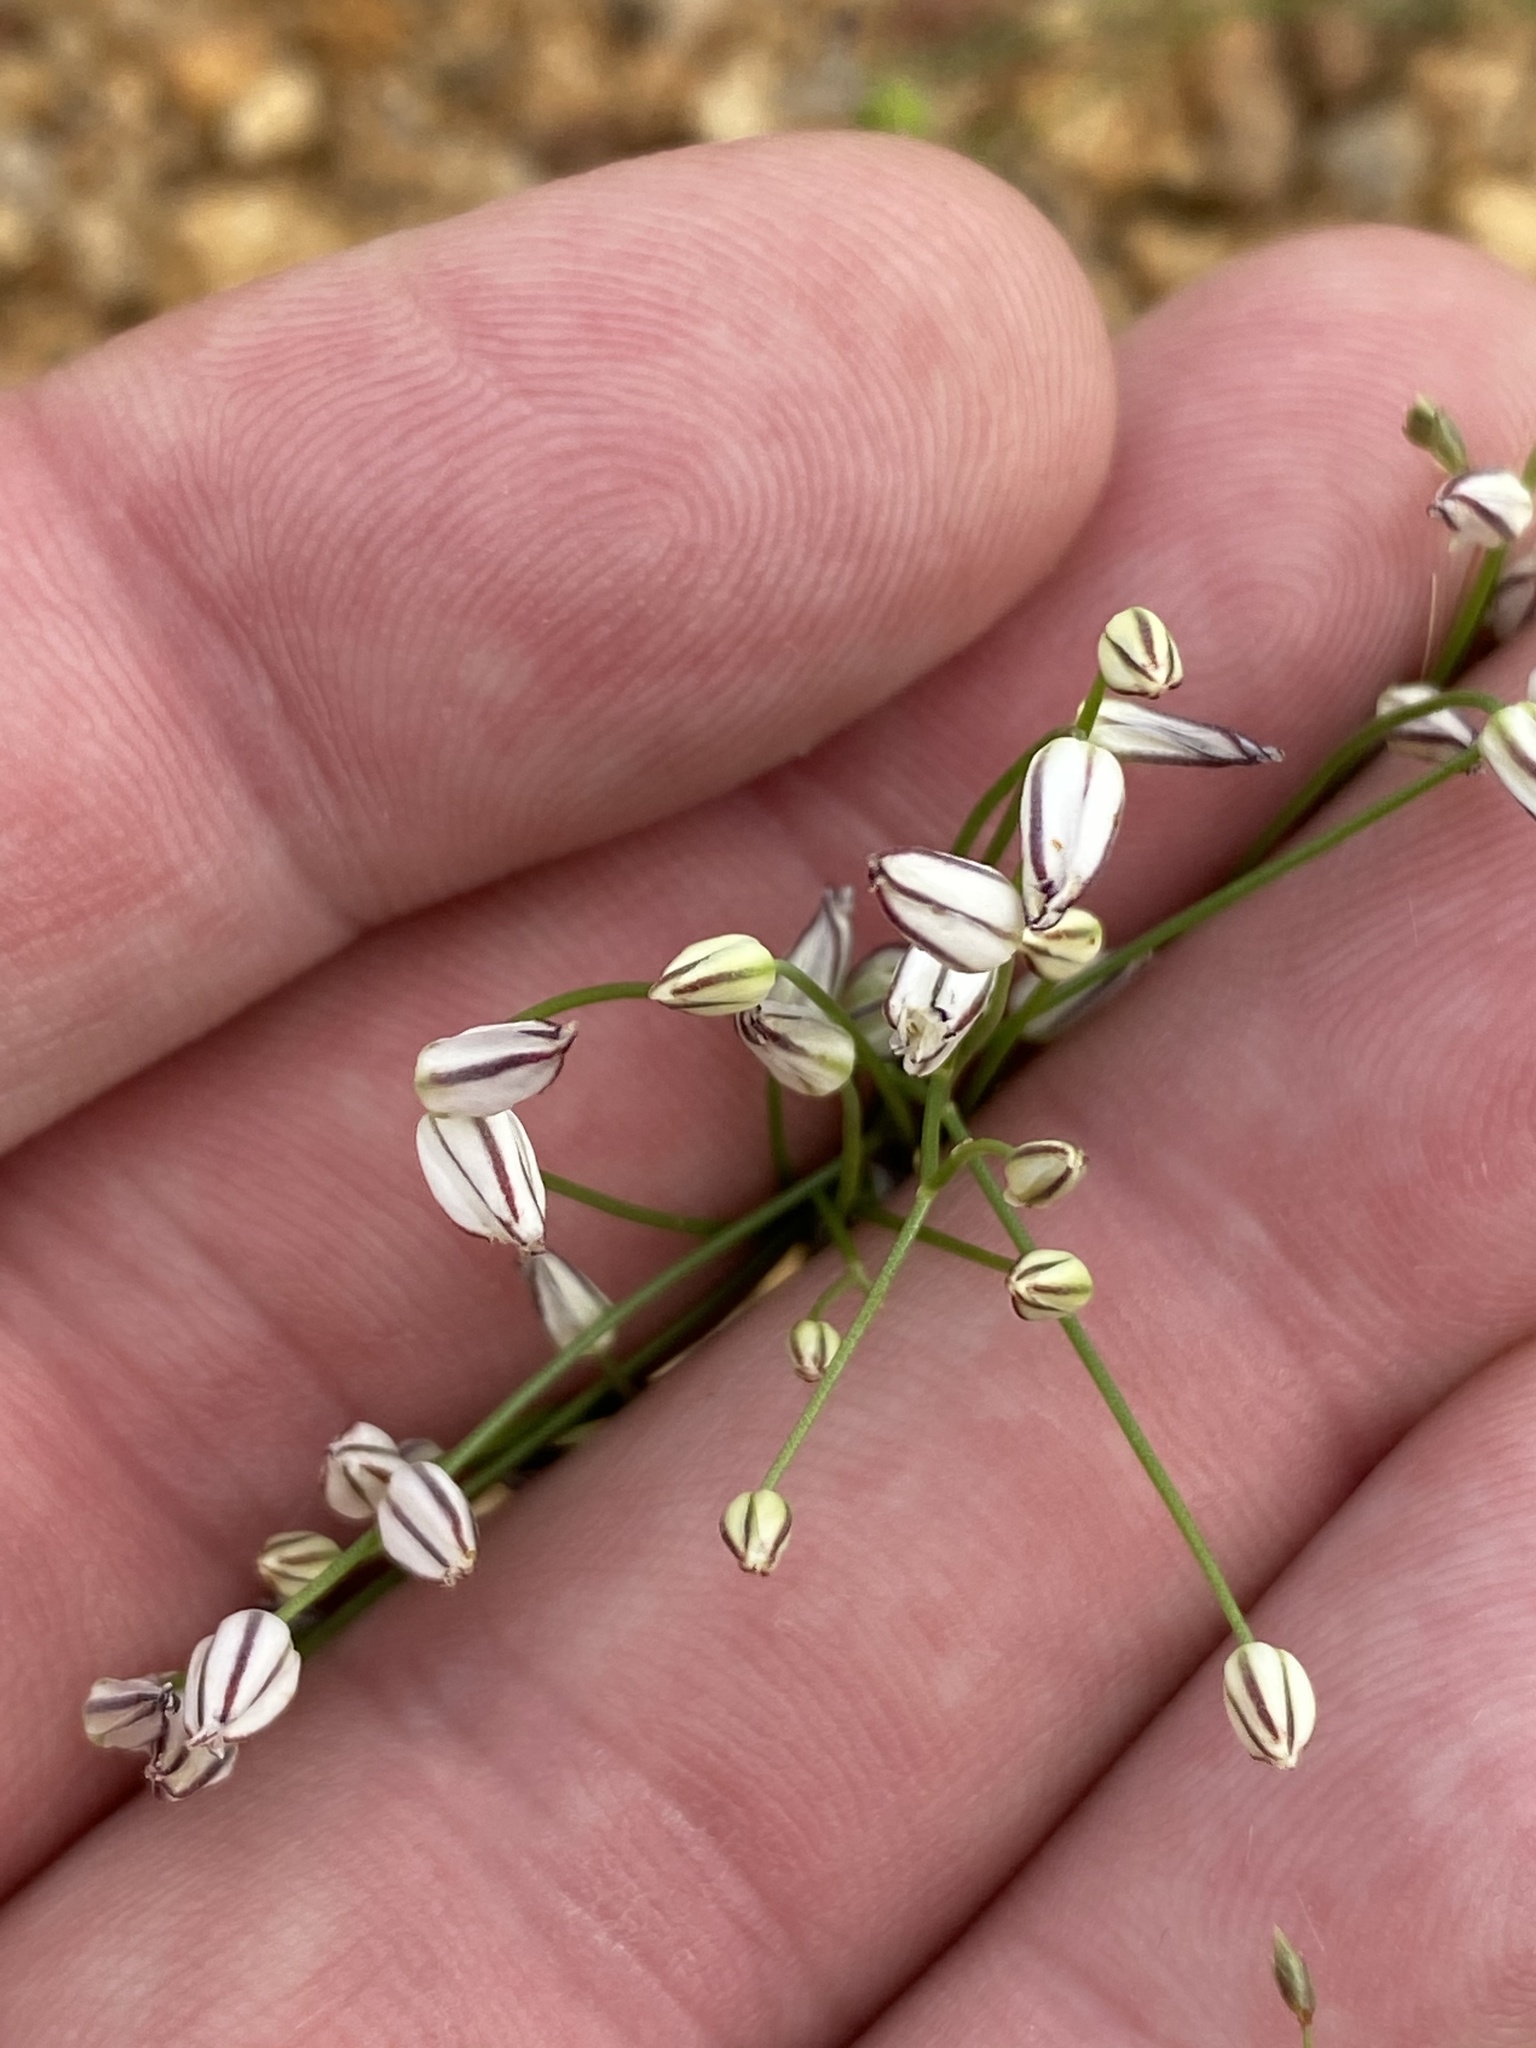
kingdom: Plantae
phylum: Tracheophyta
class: Liliopsida
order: Asparagales
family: Asparagaceae
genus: Eriospermum
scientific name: Eriospermum bakerianum
